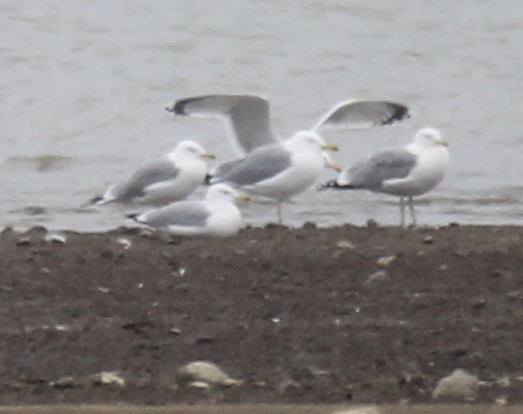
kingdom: Animalia
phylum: Chordata
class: Aves
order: Charadriiformes
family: Laridae
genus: Larus
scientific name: Larus michahellis
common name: Yellow-legged gull
